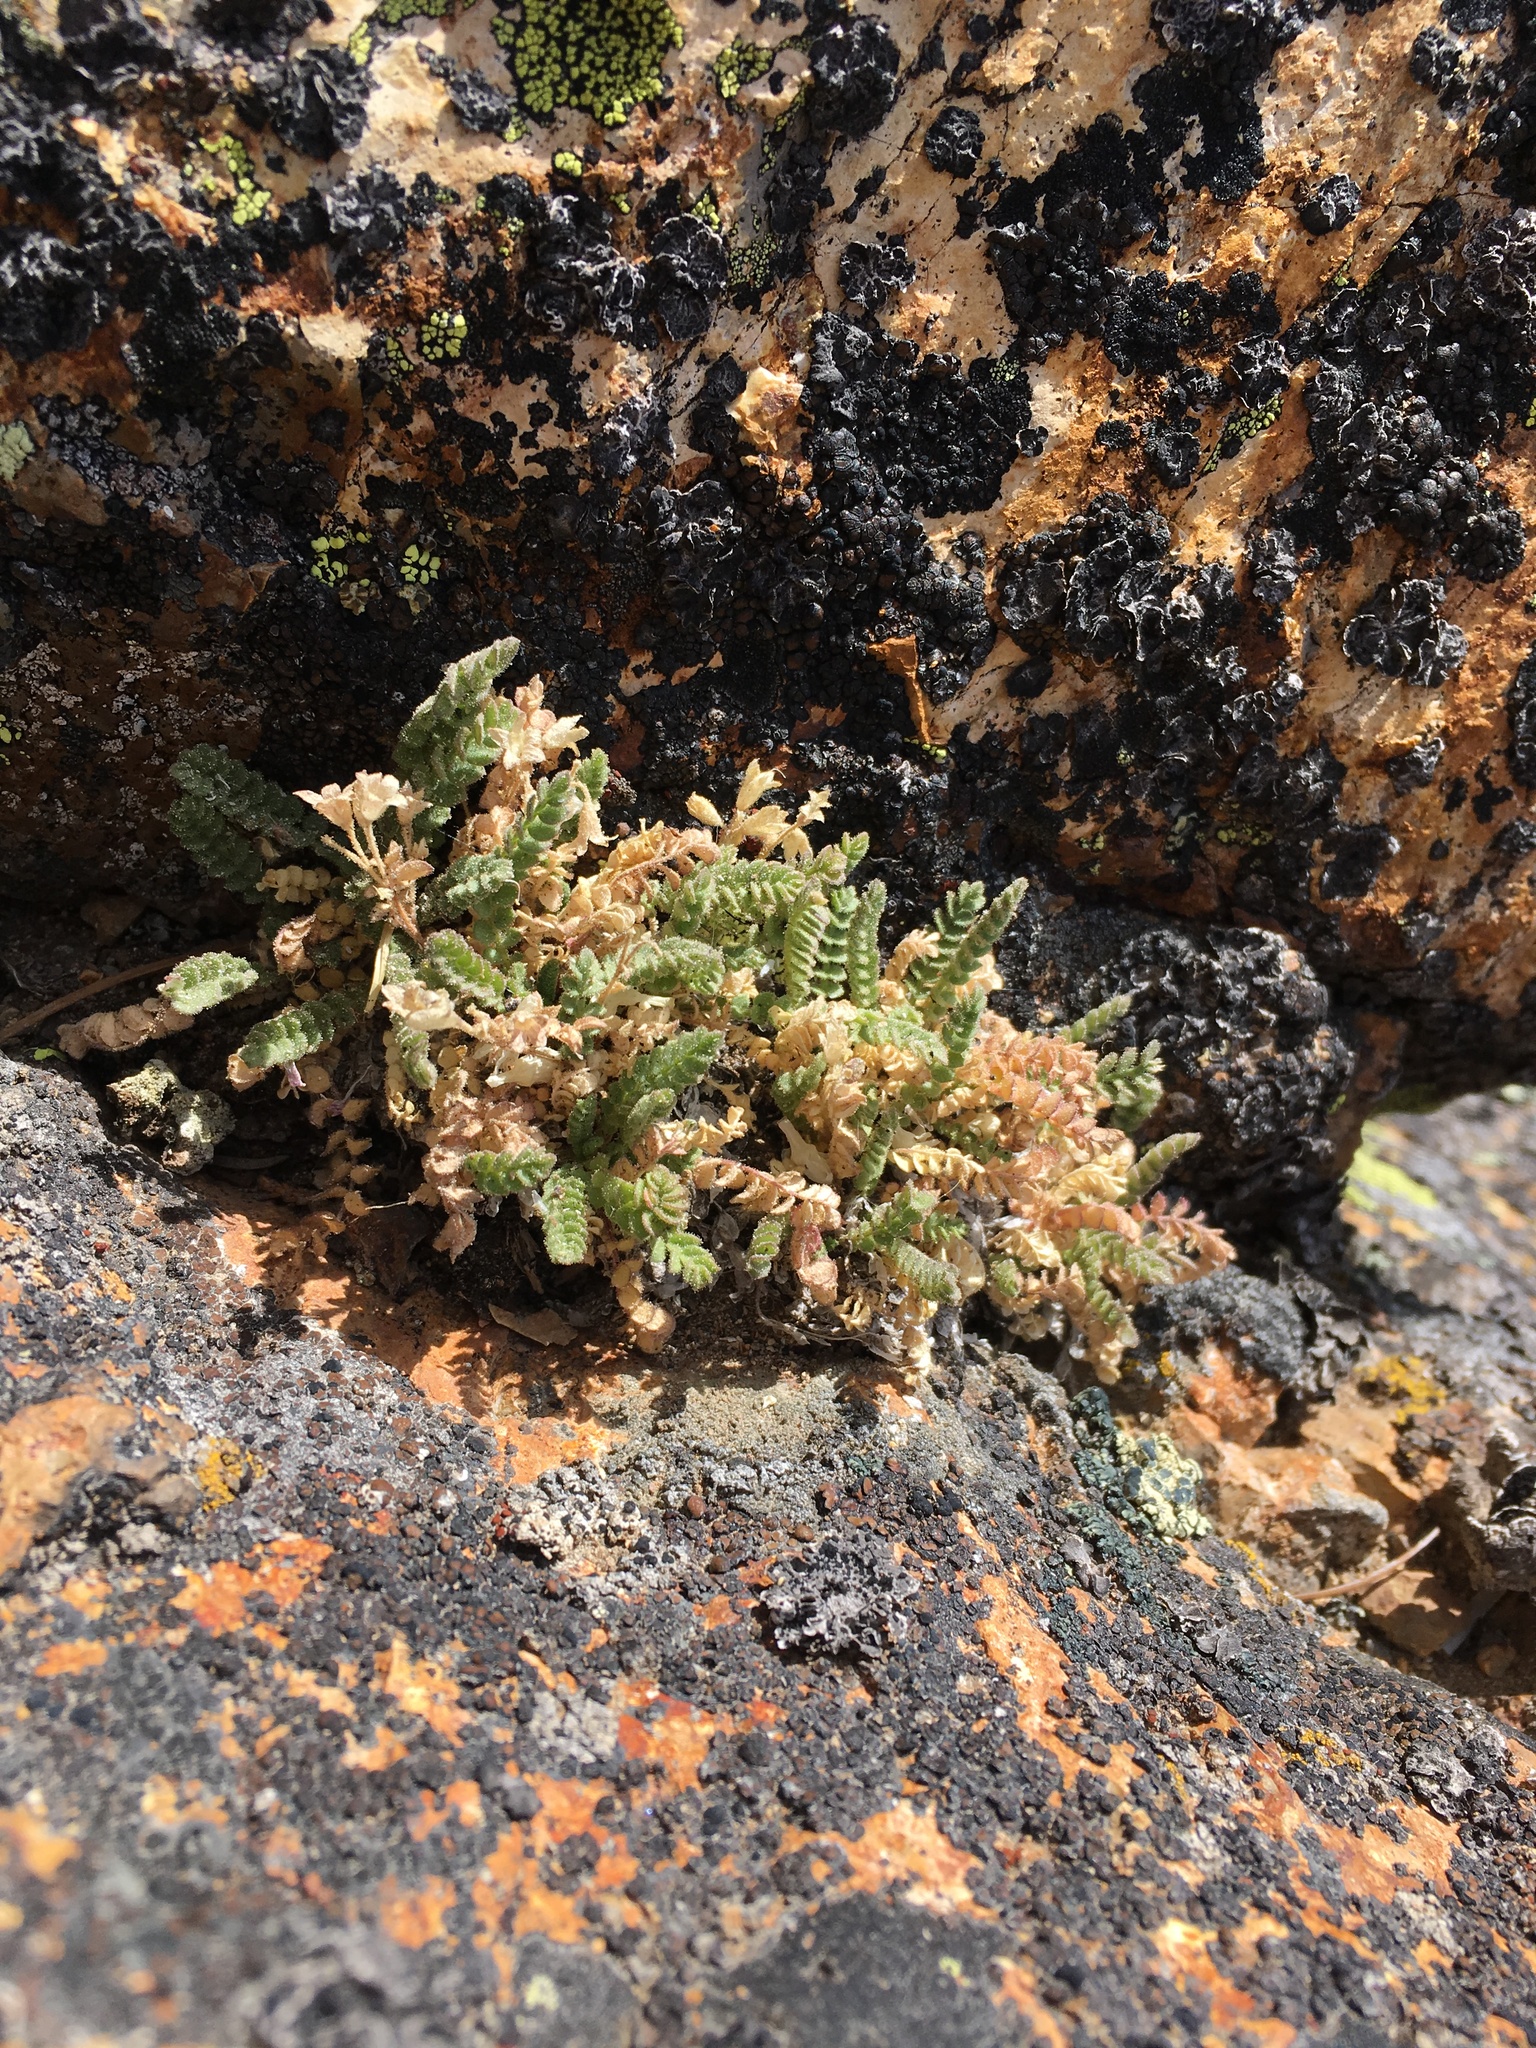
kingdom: Plantae
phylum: Tracheophyta
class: Magnoliopsida
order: Ericales
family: Polemoniaceae
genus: Polemonium
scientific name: Polemonium pulcherrimum
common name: Short jacob's-ladder
